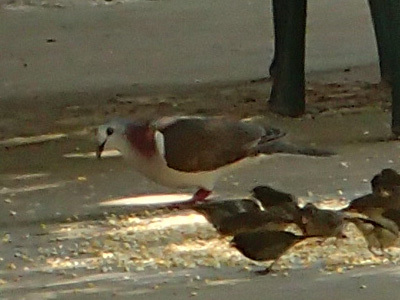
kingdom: Animalia
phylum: Chordata
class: Aves
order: Columbiformes
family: Columbidae
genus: Leptotila
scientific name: Leptotila jamaicensis
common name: Caribbean dove
